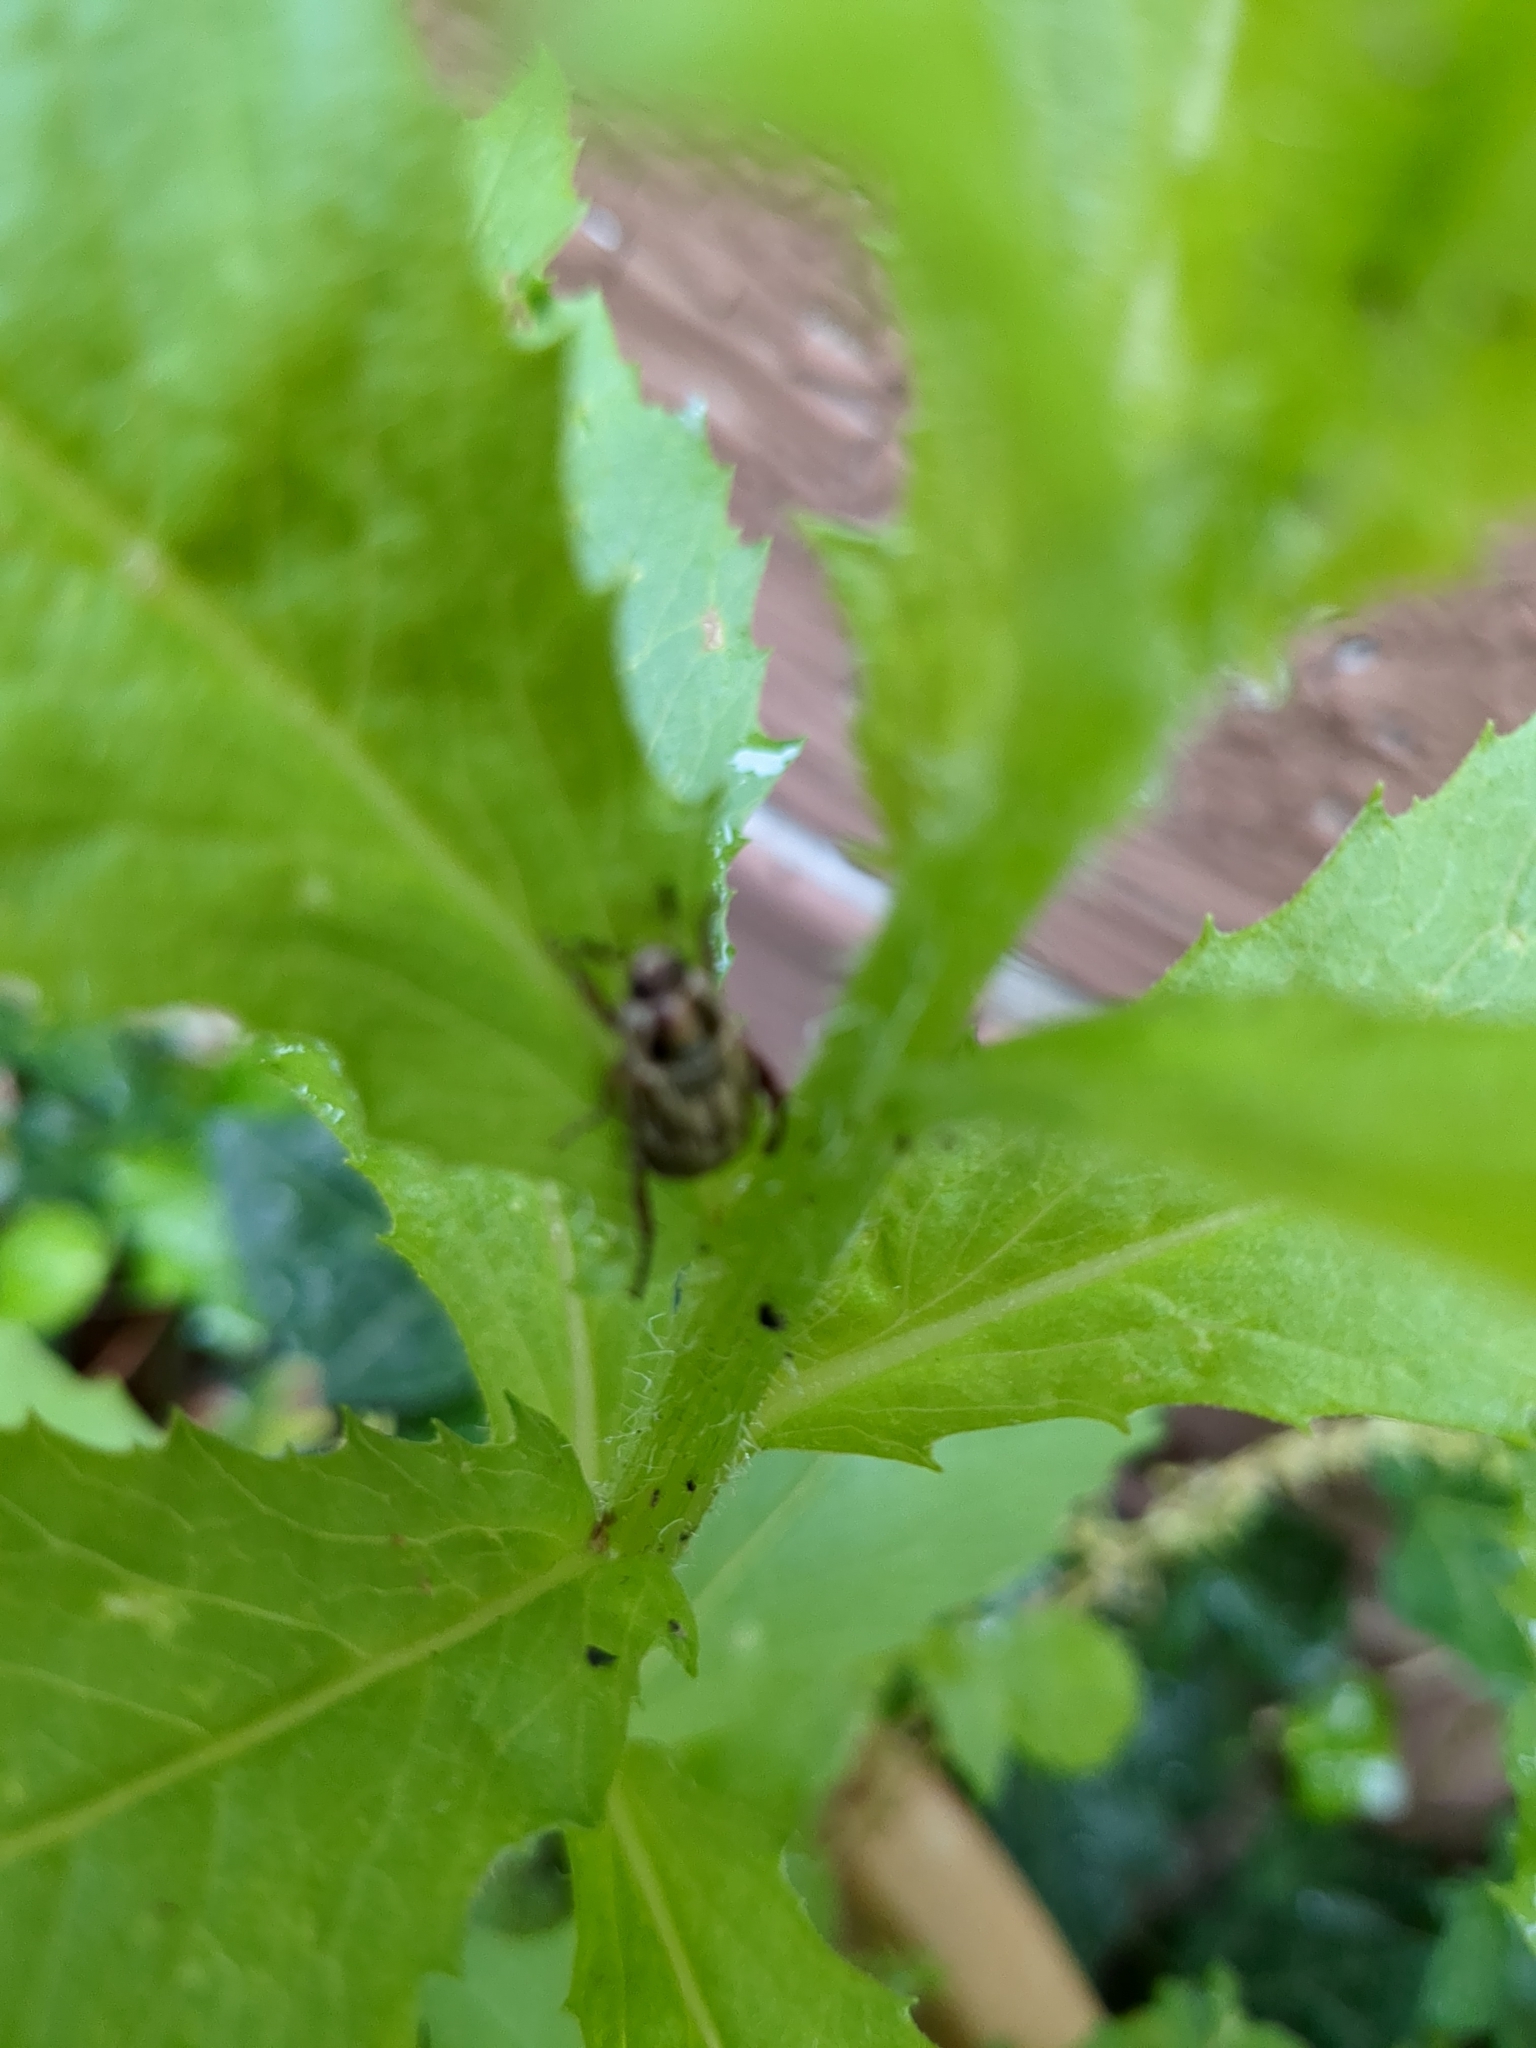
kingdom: Animalia
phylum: Arthropoda
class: Insecta
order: Coleoptera
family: Scarabaeidae
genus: Exomala
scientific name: Exomala orientalis
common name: Oriental beetle
